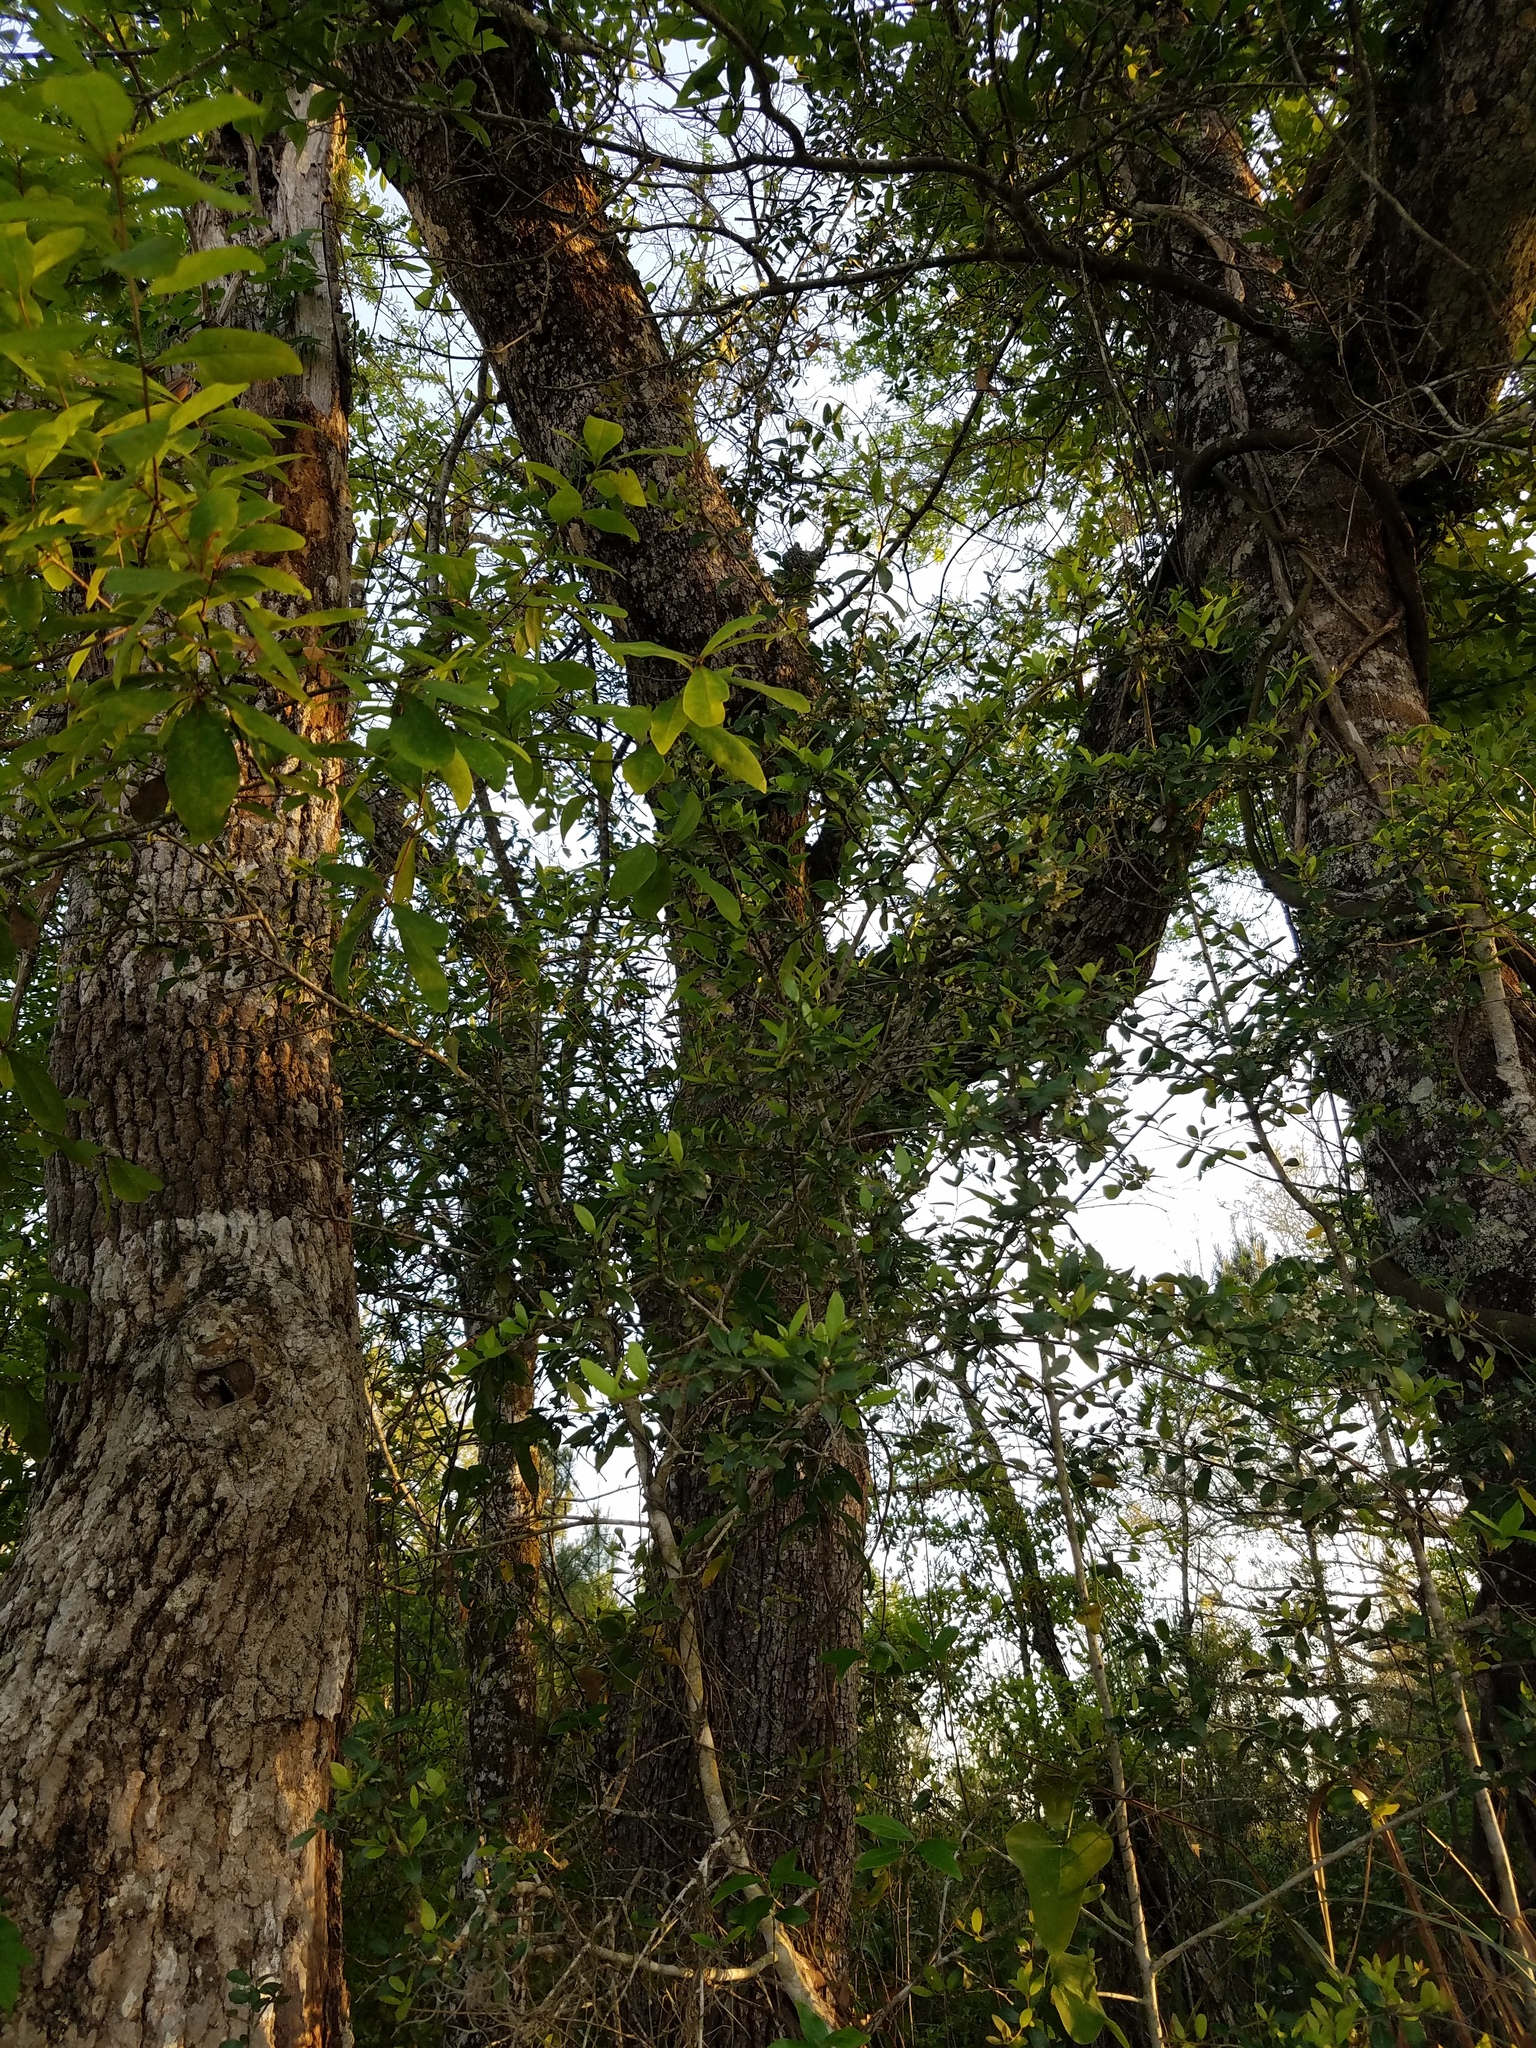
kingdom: Plantae
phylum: Tracheophyta
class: Magnoliopsida
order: Aquifoliales
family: Aquifoliaceae
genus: Ilex
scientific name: Ilex vomitoria
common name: Yaupon holly
